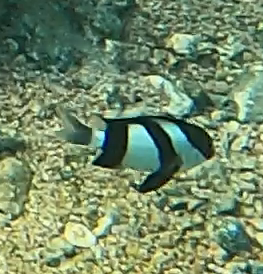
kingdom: Animalia
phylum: Chordata
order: Perciformes
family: Pomacentridae
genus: Dascyllus
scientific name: Dascyllus abudafur
